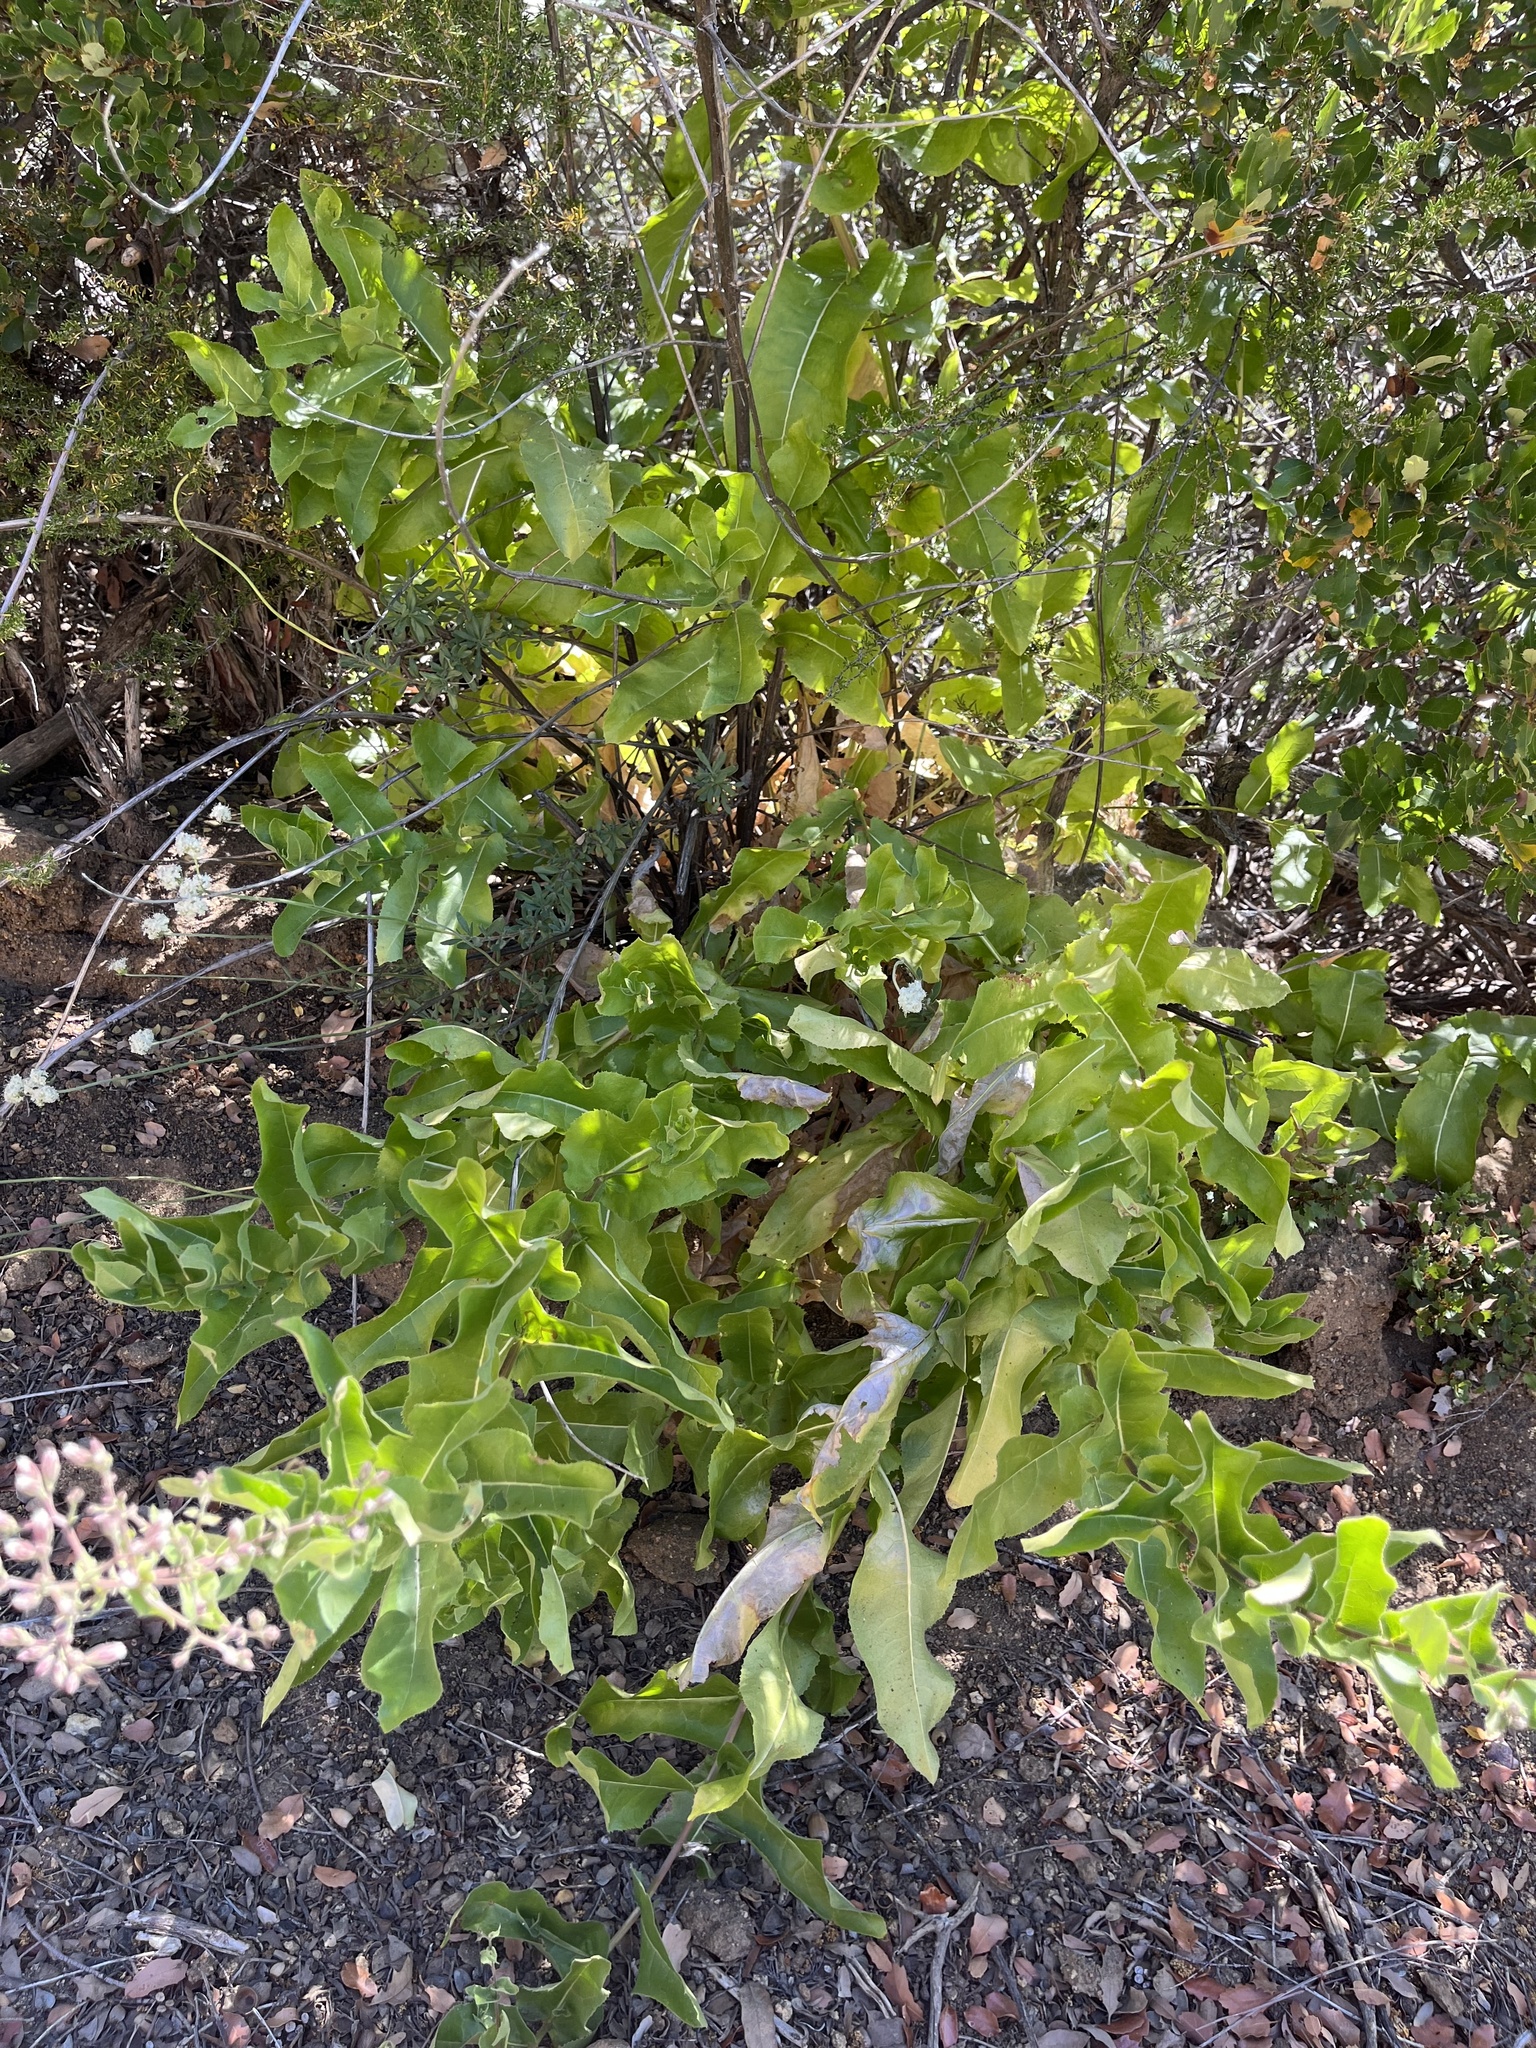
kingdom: Plantae
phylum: Tracheophyta
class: Magnoliopsida
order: Asterales
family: Asteraceae
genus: Acourtia
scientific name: Acourtia microcephala
